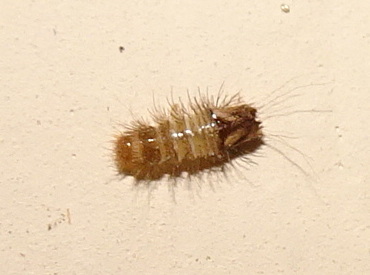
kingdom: Animalia
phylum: Arthropoda
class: Insecta
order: Coleoptera
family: Dermestidae
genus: Anthrenus
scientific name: Anthrenus verbasci
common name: Varied carpet beetle
